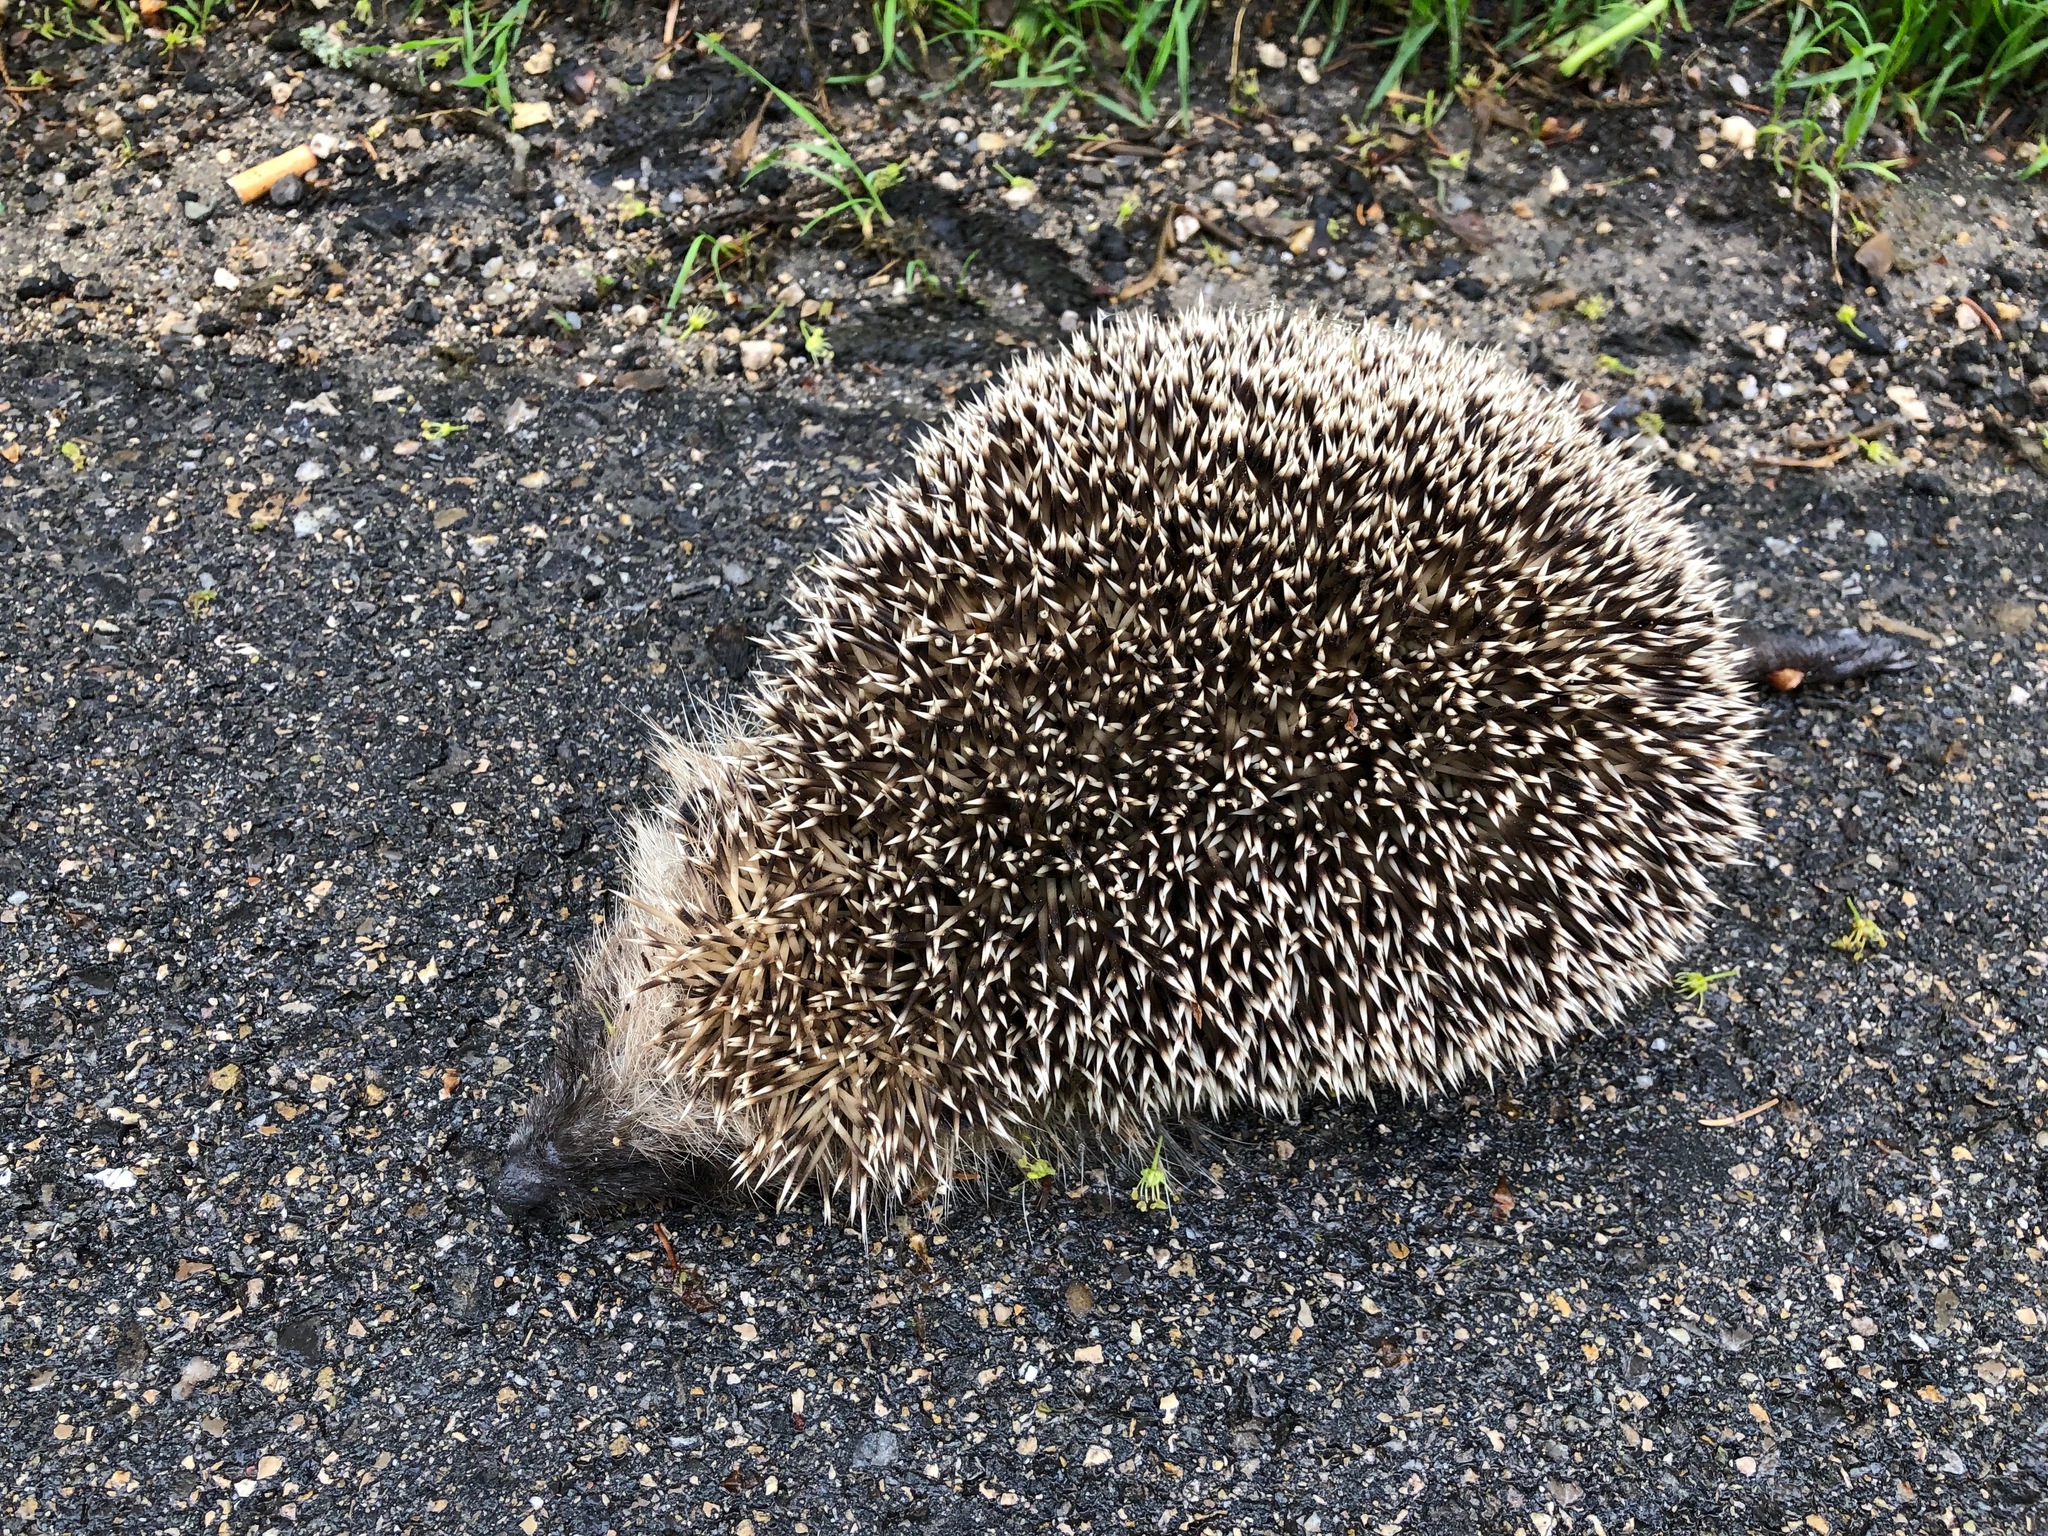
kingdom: Animalia
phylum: Chordata
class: Mammalia
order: Erinaceomorpha
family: Erinaceidae
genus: Erinaceus
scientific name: Erinaceus europaeus
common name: West european hedgehog
